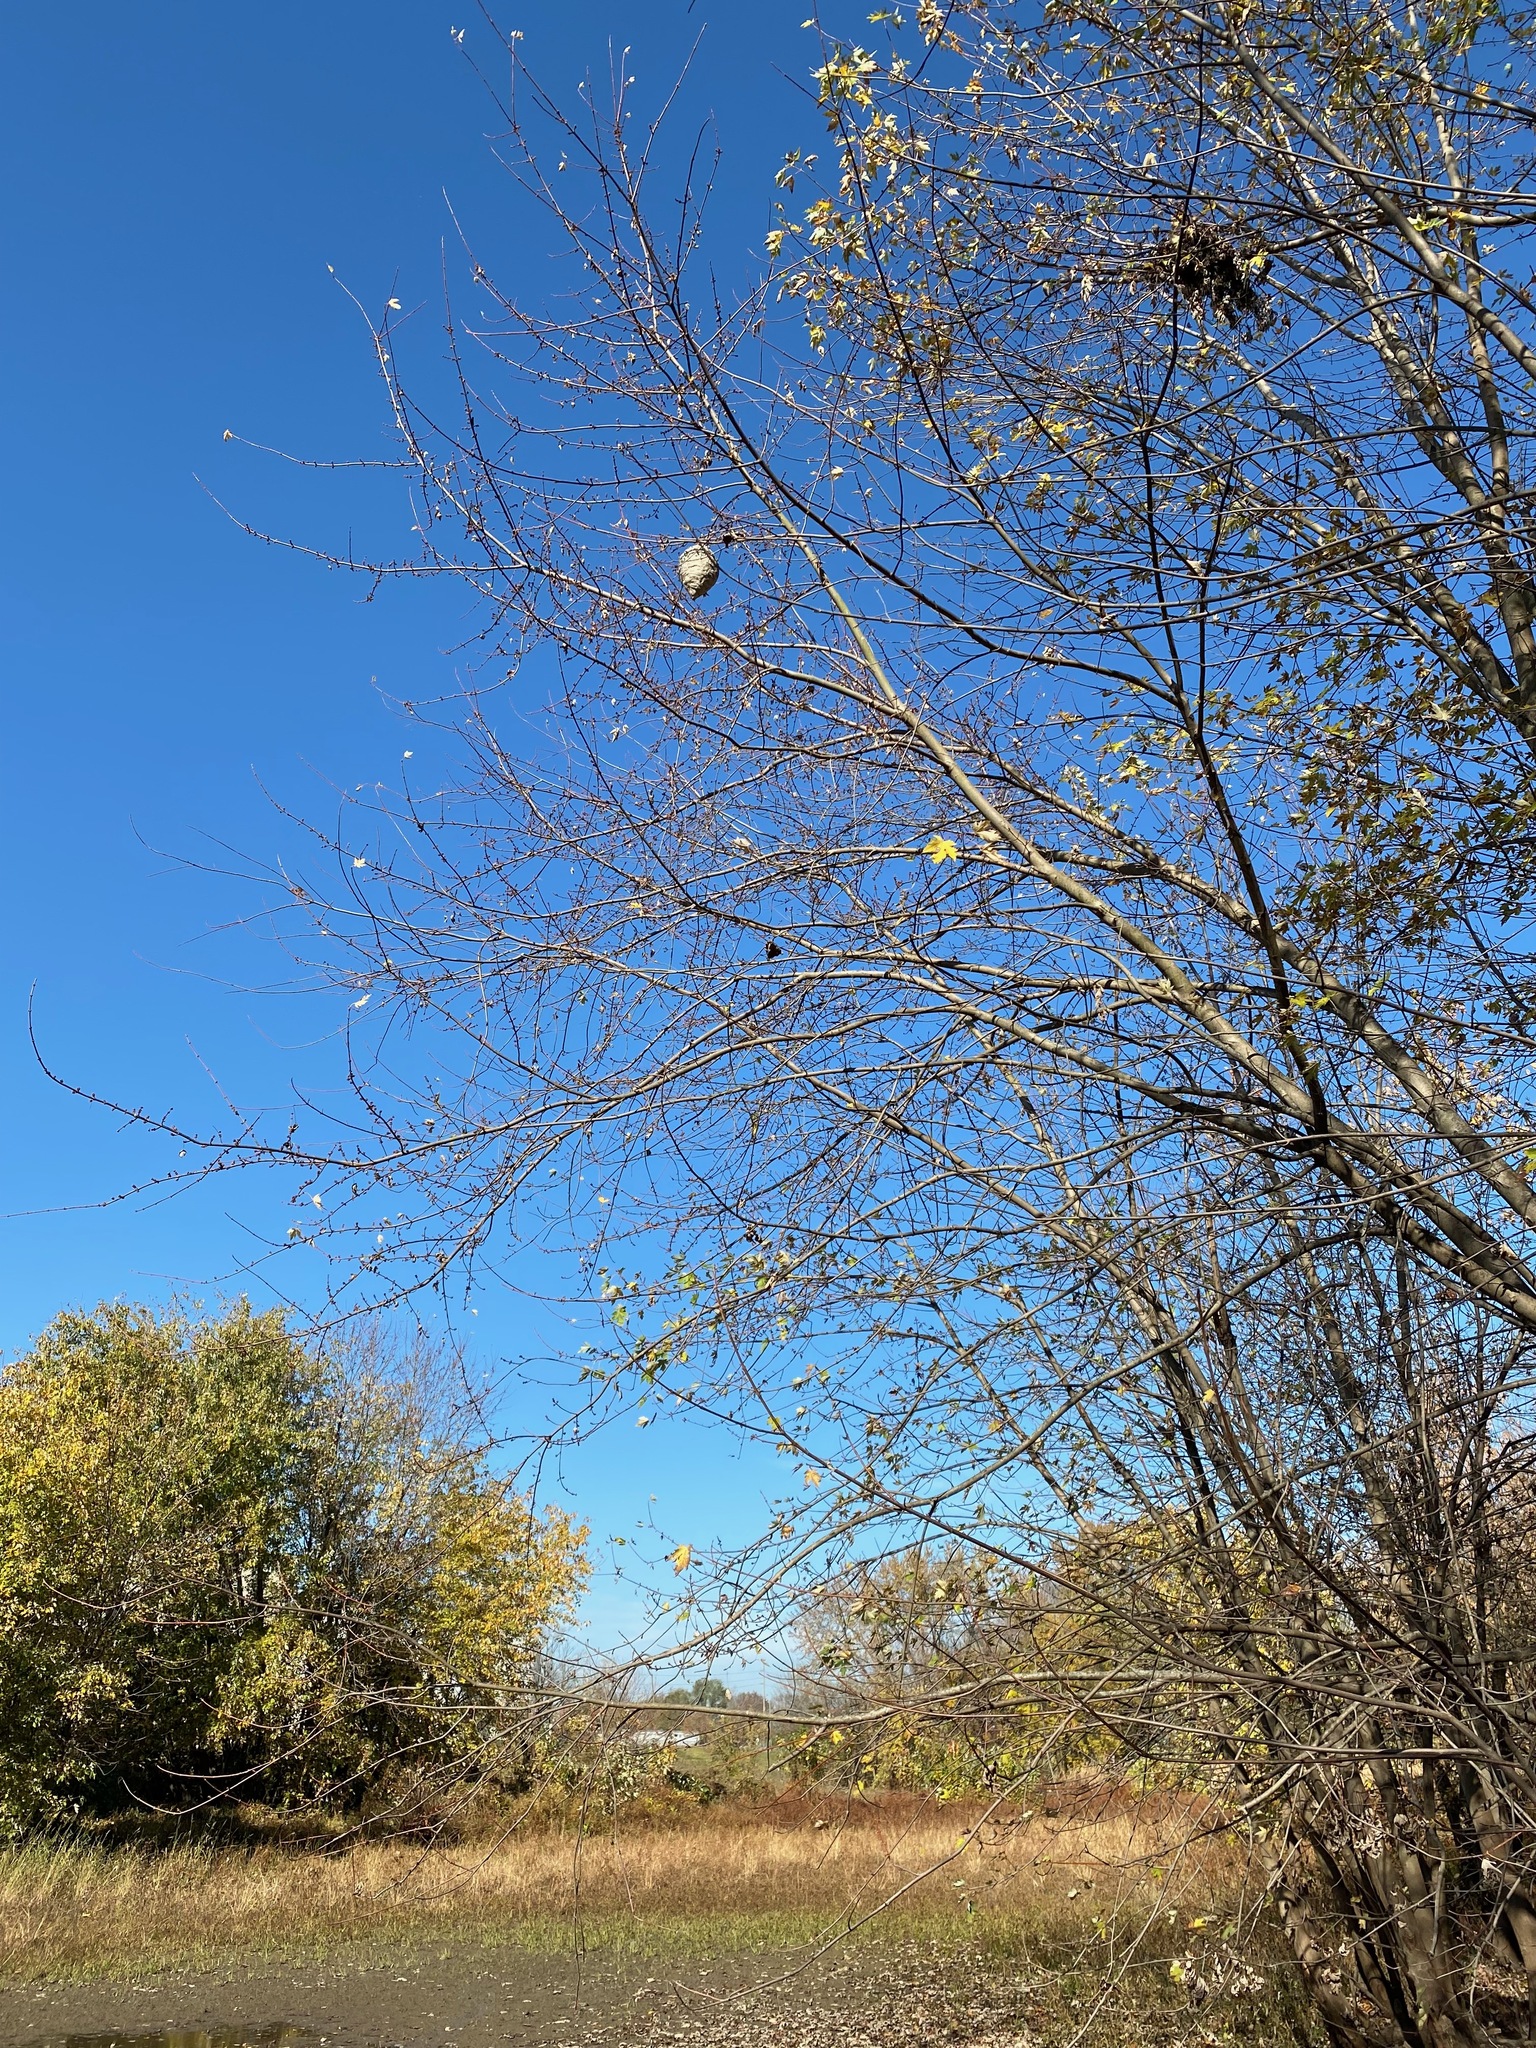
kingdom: Animalia
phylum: Arthropoda
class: Insecta
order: Hymenoptera
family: Vespidae
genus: Dolichovespula
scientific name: Dolichovespula
